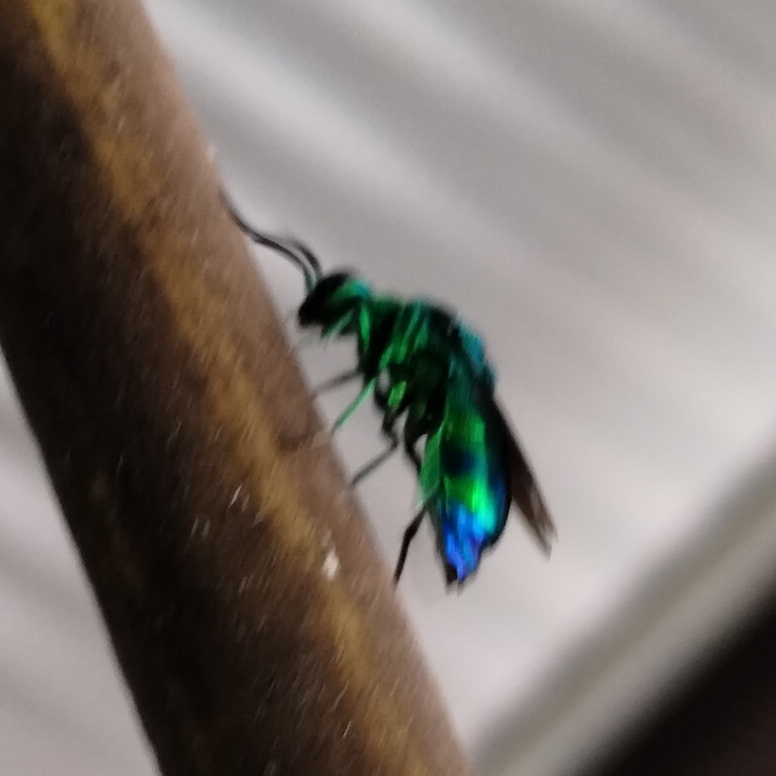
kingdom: Animalia
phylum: Arthropoda
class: Insecta
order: Hymenoptera
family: Chrysididae
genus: Chrysis
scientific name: Chrysis lincea
